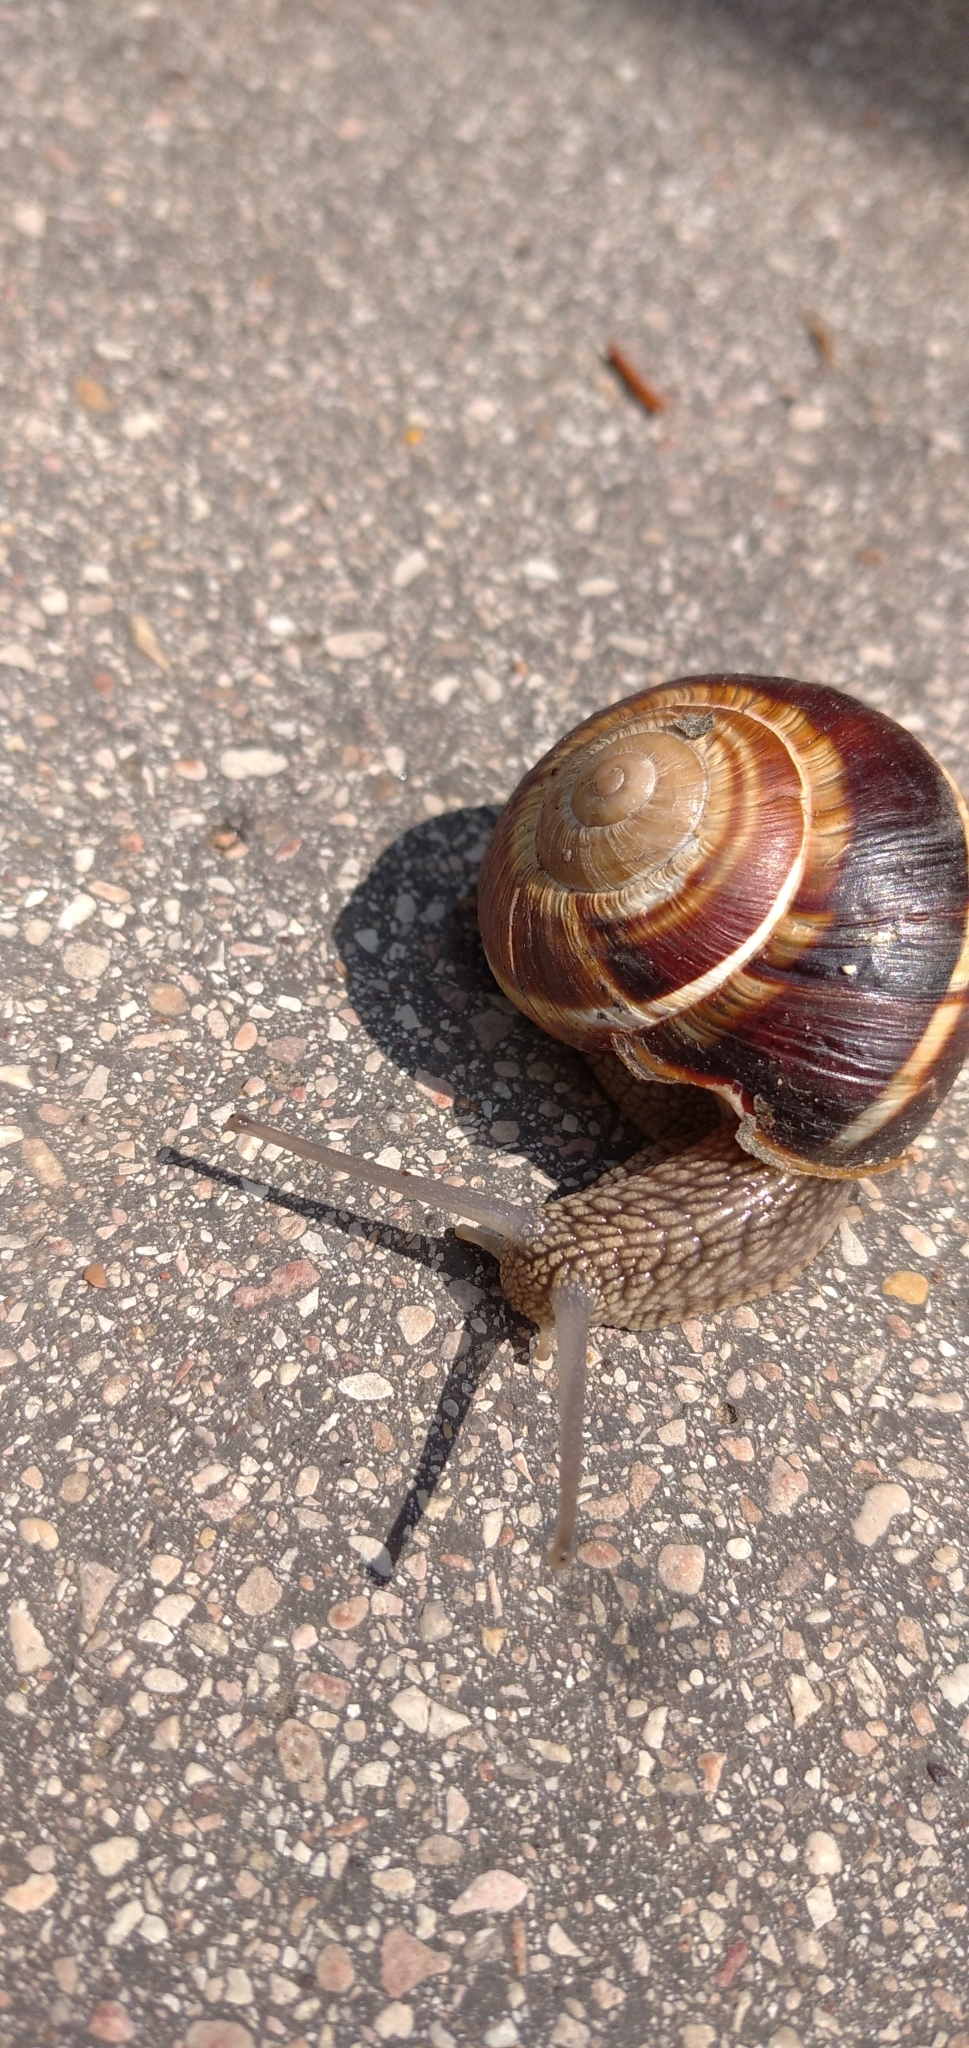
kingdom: Animalia
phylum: Mollusca
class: Gastropoda
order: Stylommatophora
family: Helicidae
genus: Helix
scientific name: Helix lucorum
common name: Turkish snail
